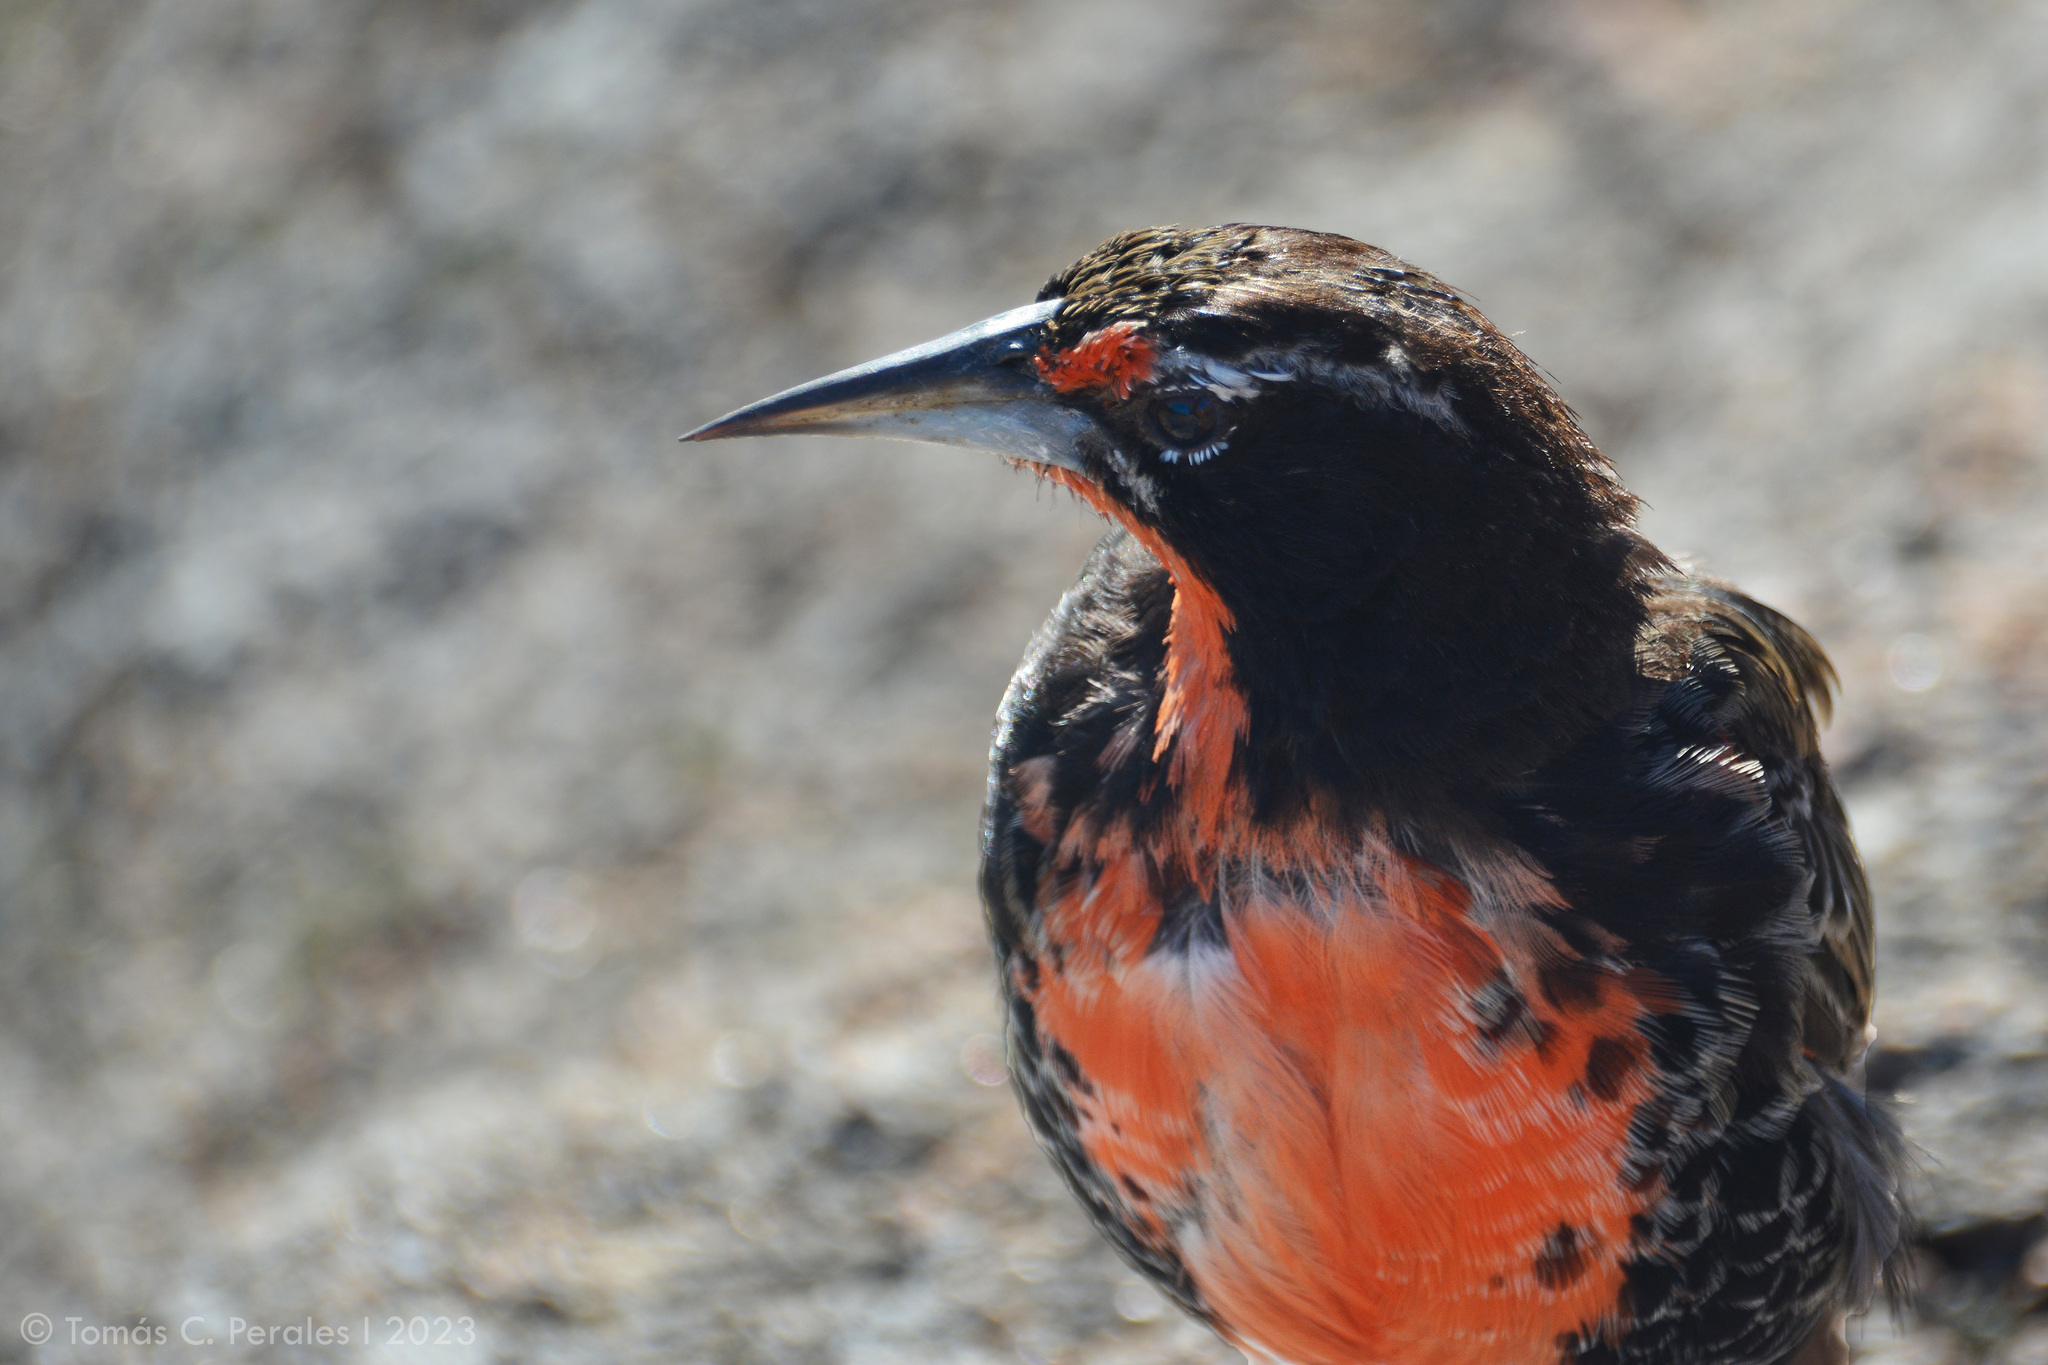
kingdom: Animalia
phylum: Chordata
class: Aves
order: Passeriformes
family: Icteridae
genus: Sturnella
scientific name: Sturnella loyca
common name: Long-tailed meadowlark
